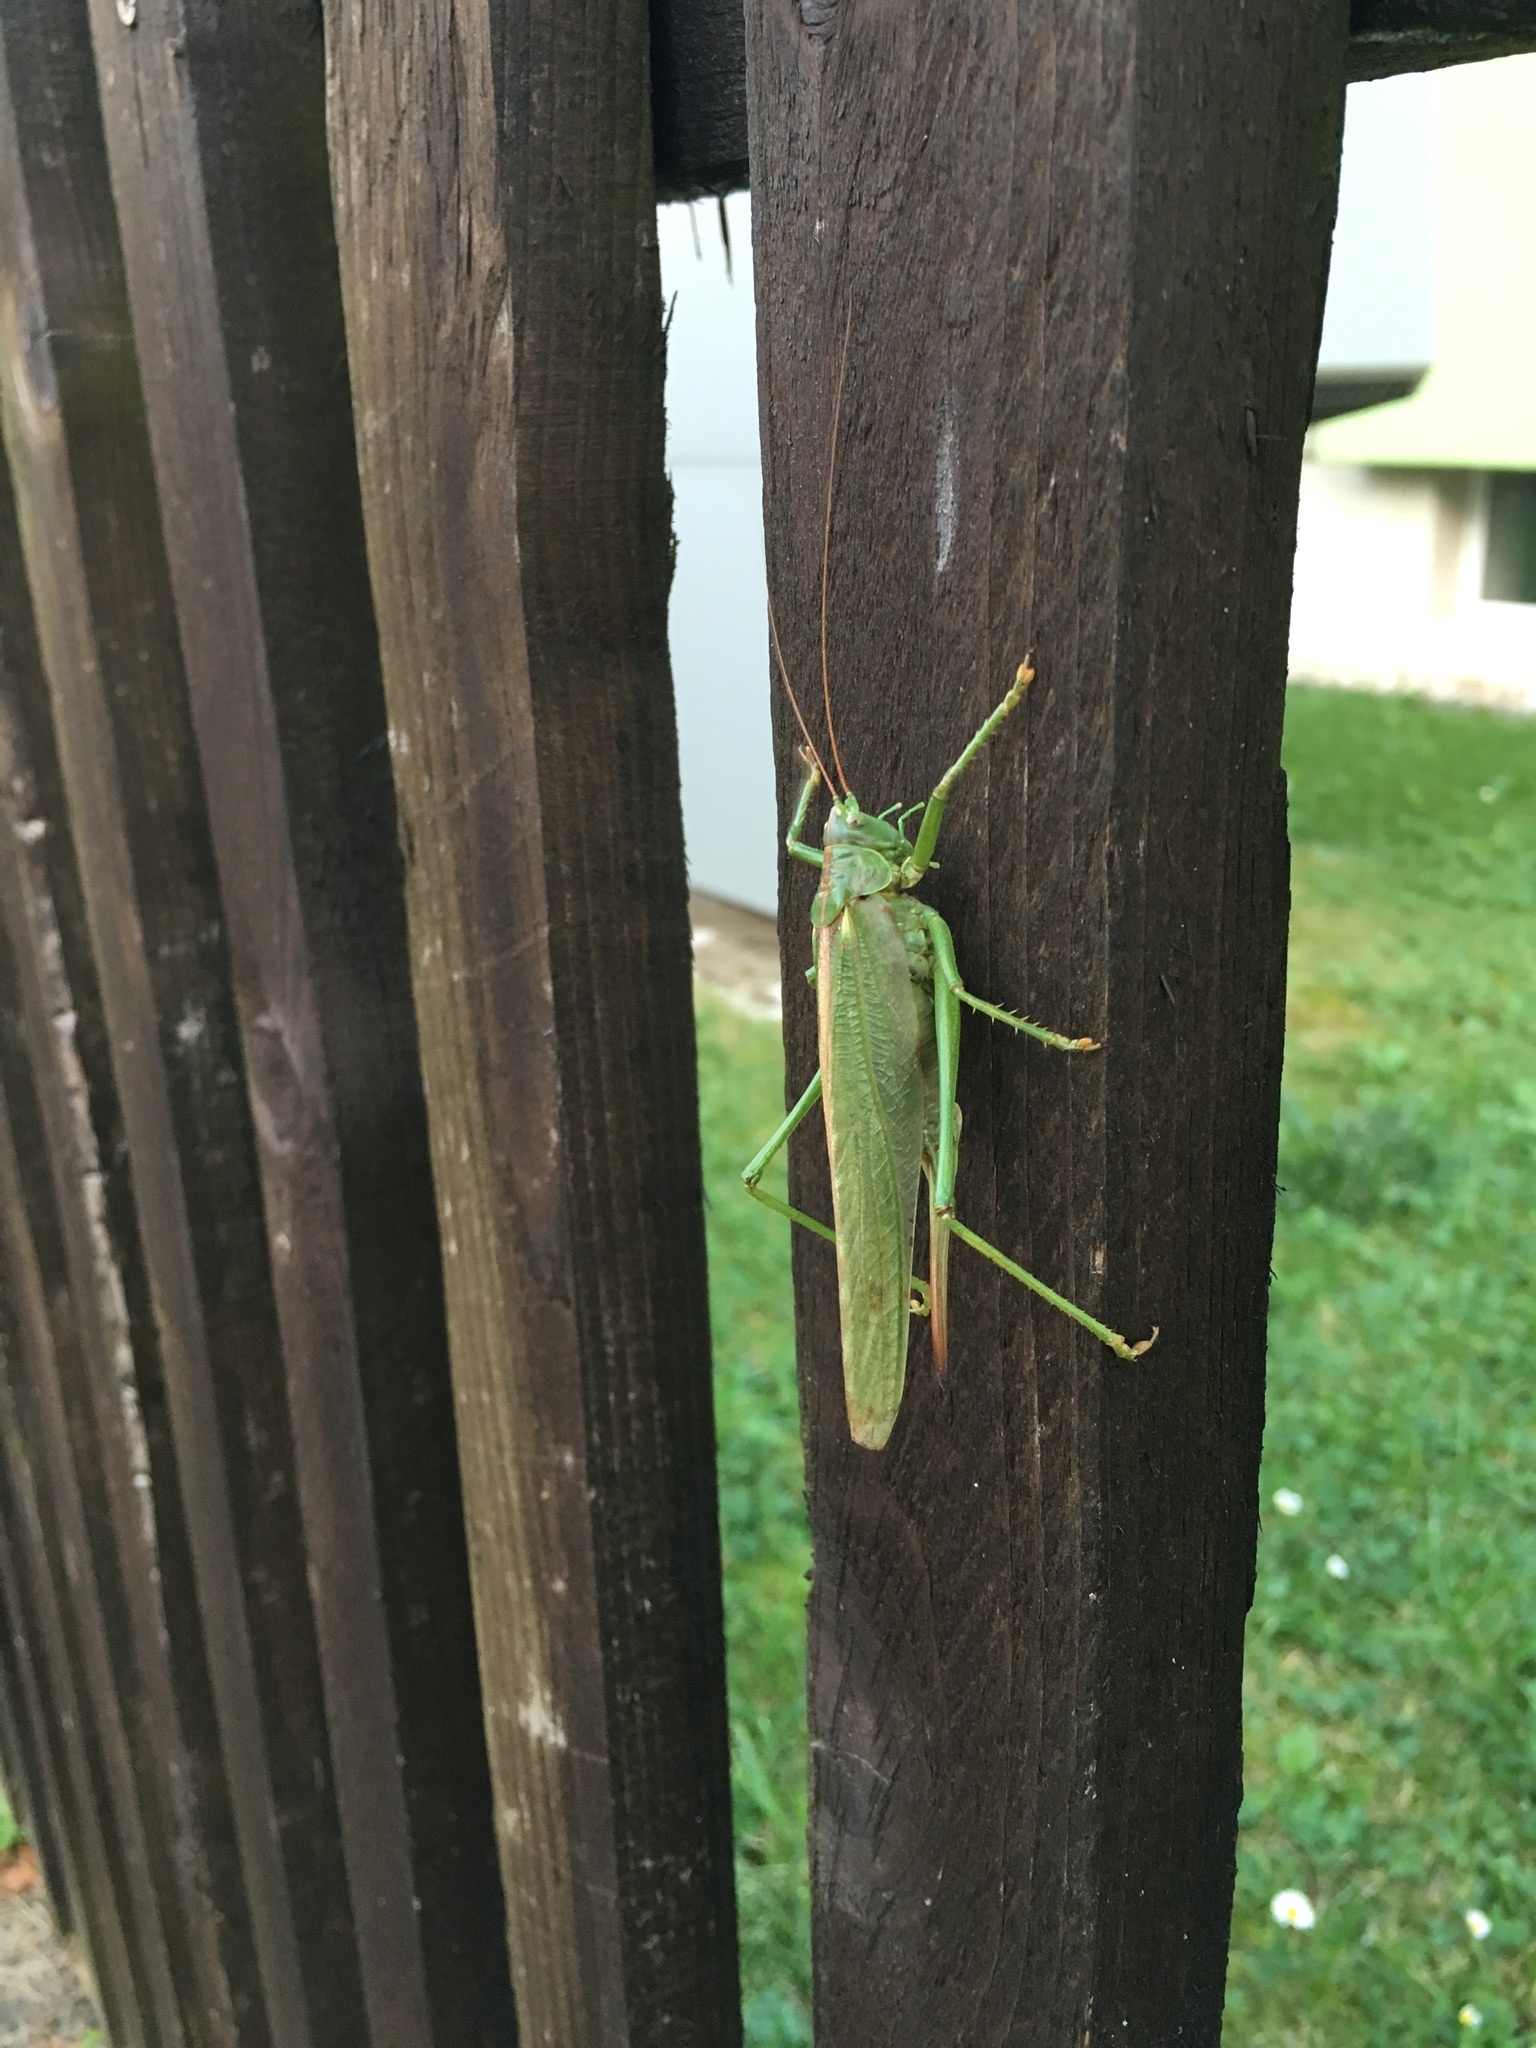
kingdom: Animalia
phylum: Arthropoda
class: Insecta
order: Orthoptera
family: Tettigoniidae
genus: Tettigonia
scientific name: Tettigonia viridissima
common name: Great green bush-cricket
